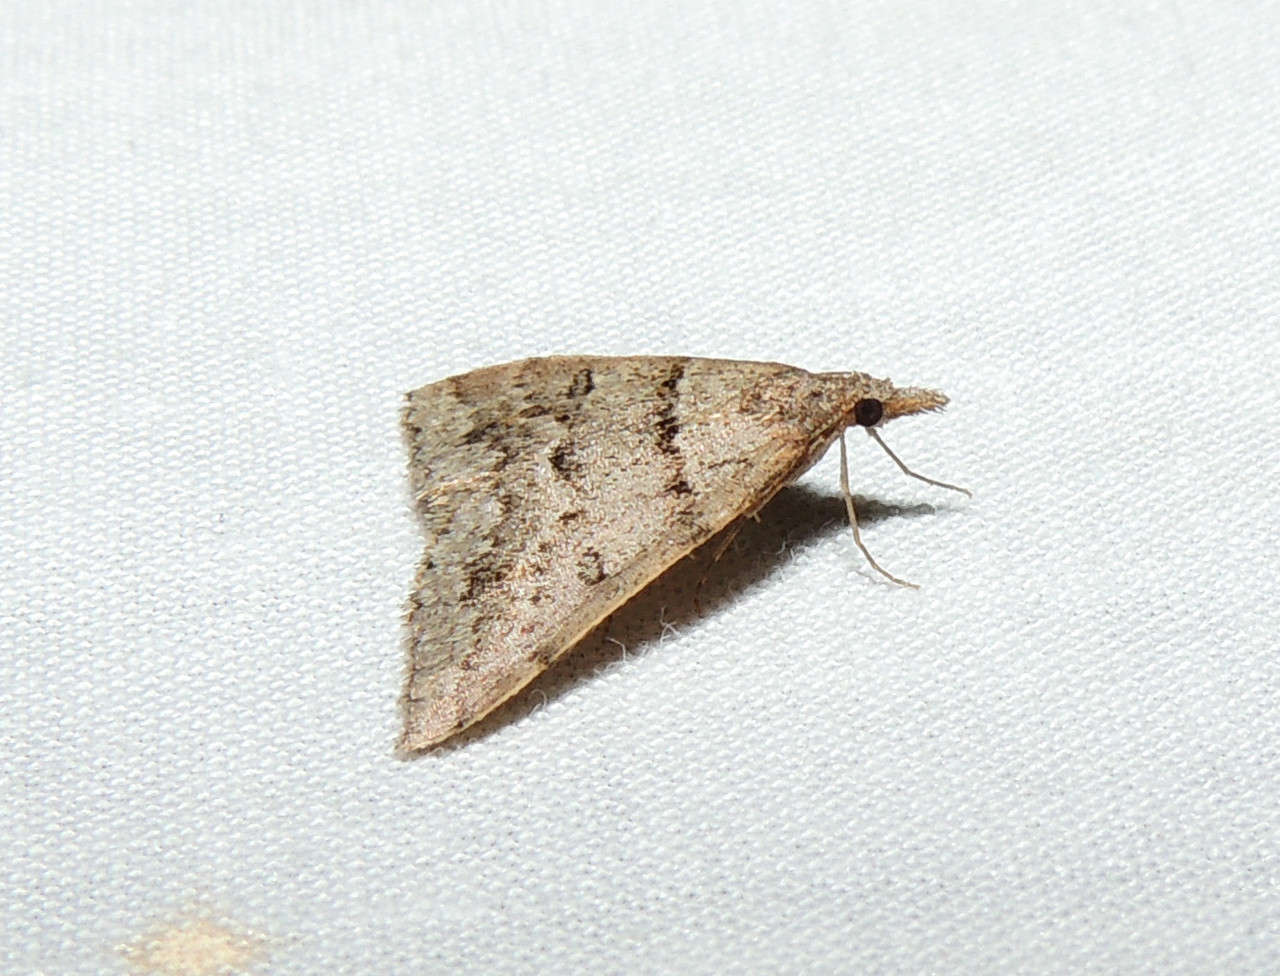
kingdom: Animalia
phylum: Arthropoda
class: Insecta
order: Lepidoptera
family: Geometridae
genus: Dichromodes
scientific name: Dichromodes mesogonia
